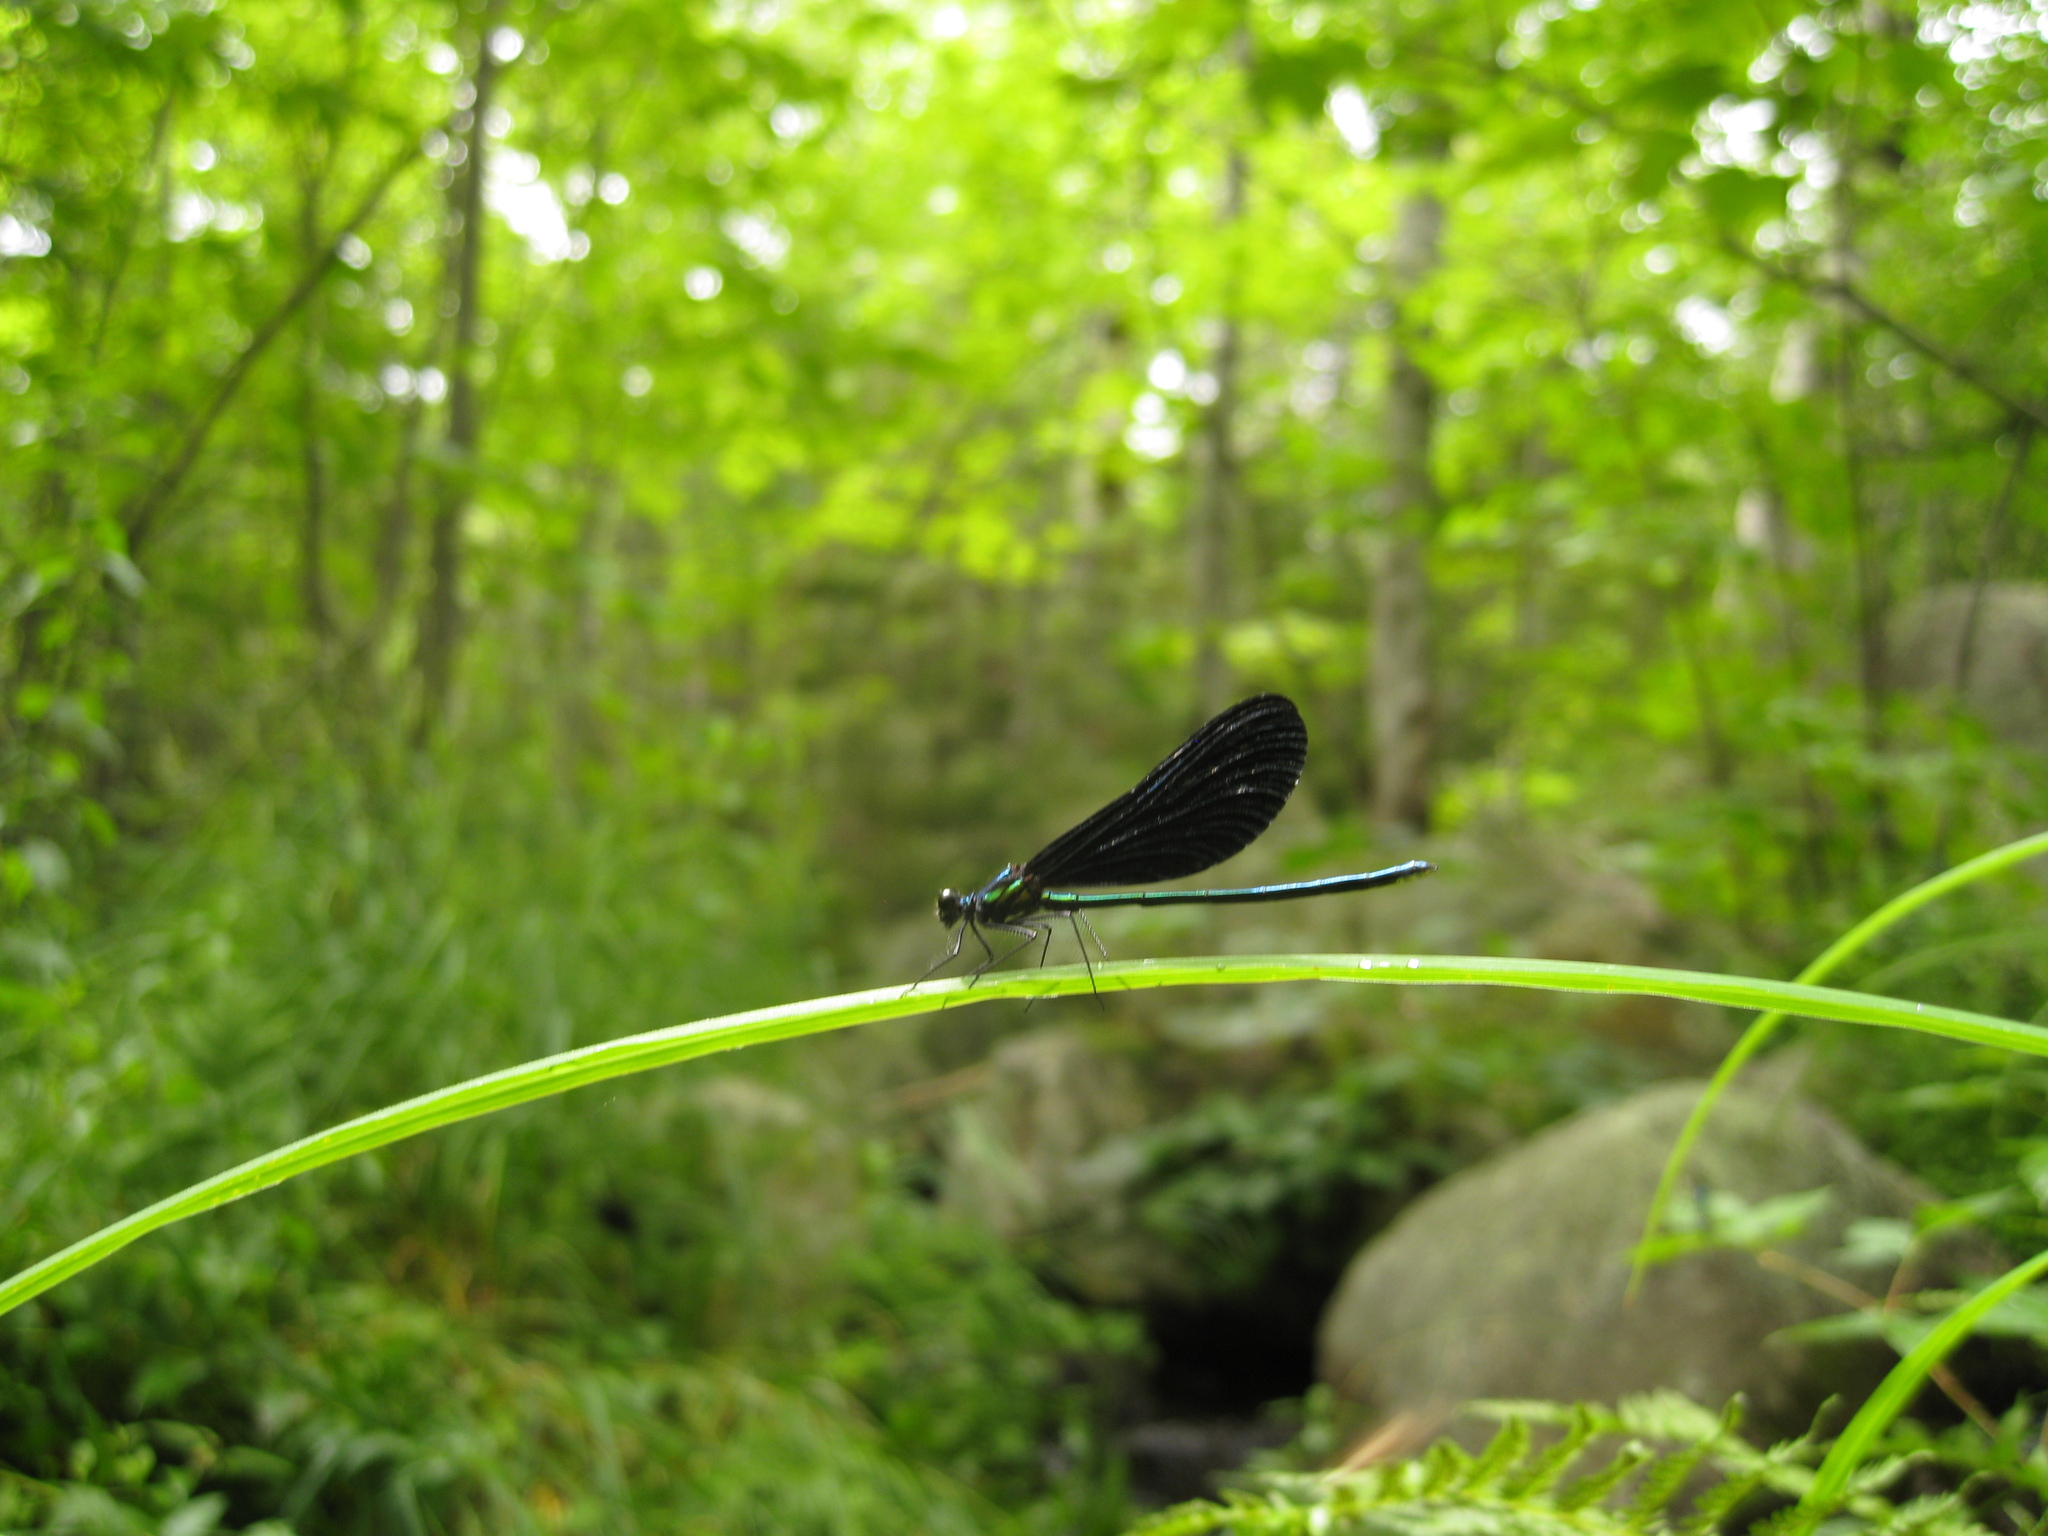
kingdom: Animalia
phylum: Arthropoda
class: Insecta
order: Odonata
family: Calopterygidae
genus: Calopteryx
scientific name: Calopteryx maculata
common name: Ebony jewelwing
